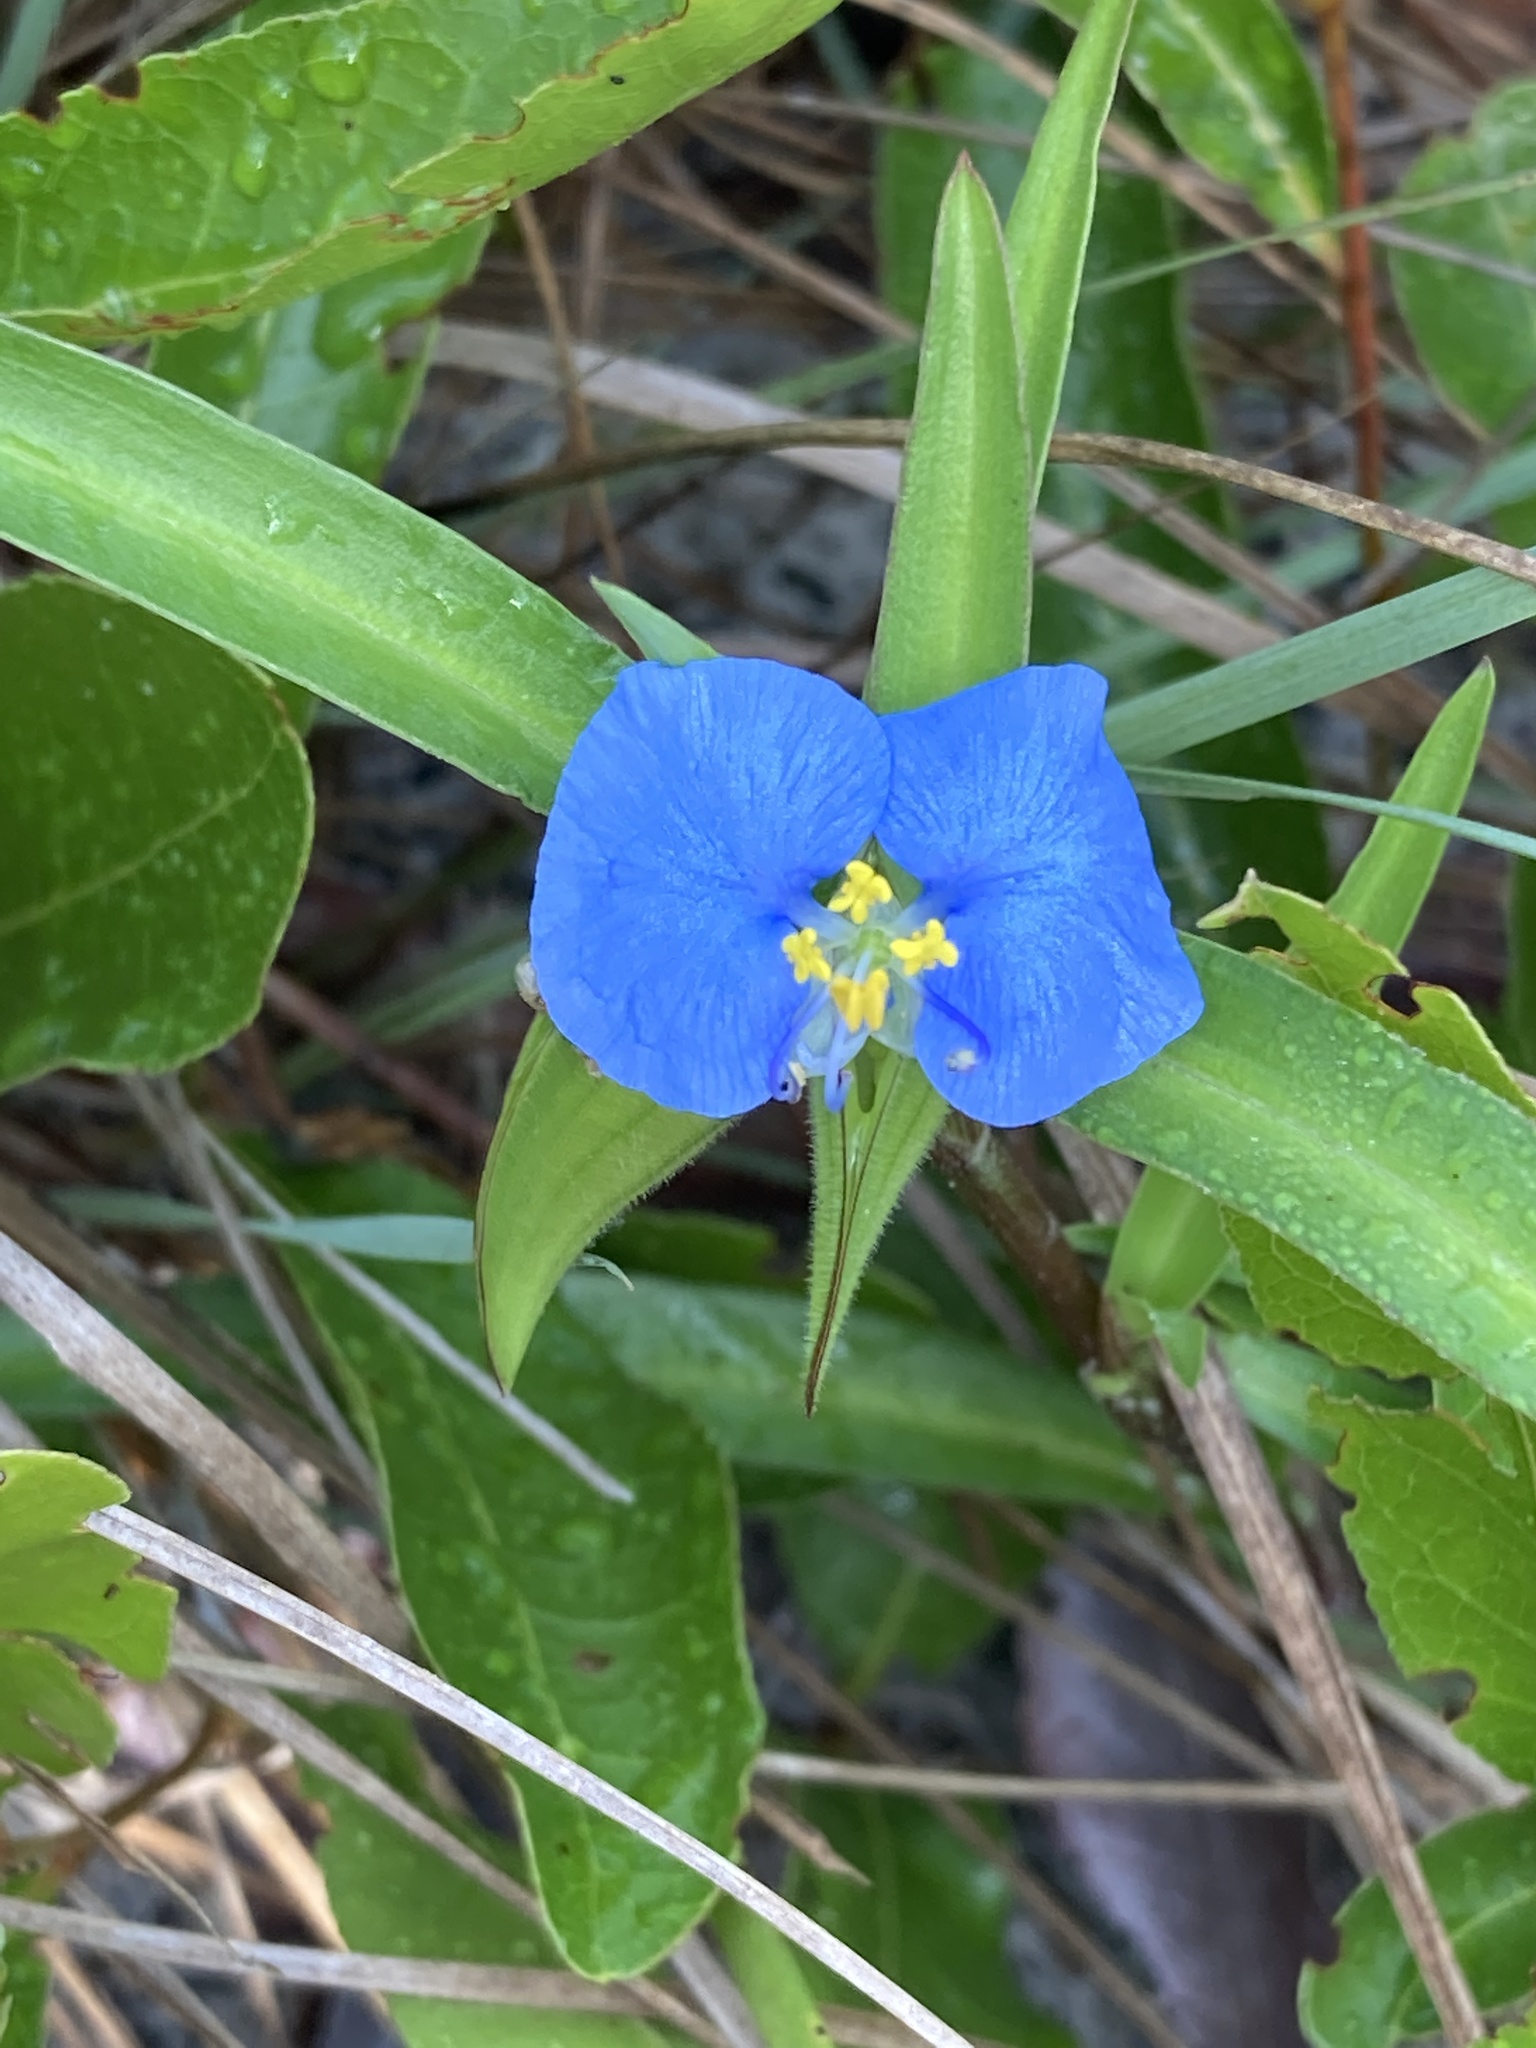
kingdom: Plantae
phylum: Tracheophyta
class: Liliopsida
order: Commelinales
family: Commelinaceae
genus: Commelina
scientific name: Commelina erecta
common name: Blousel blommetjie
